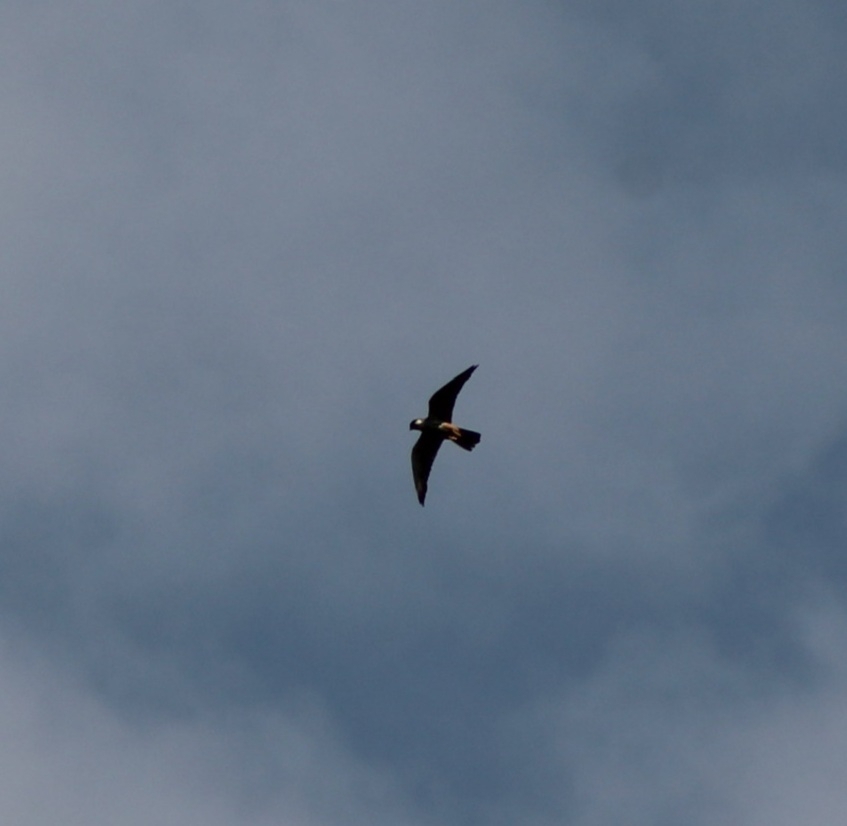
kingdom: Animalia
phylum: Chordata
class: Aves
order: Falconiformes
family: Falconidae
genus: Falco
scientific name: Falco subbuteo
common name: Eurasian hobby
